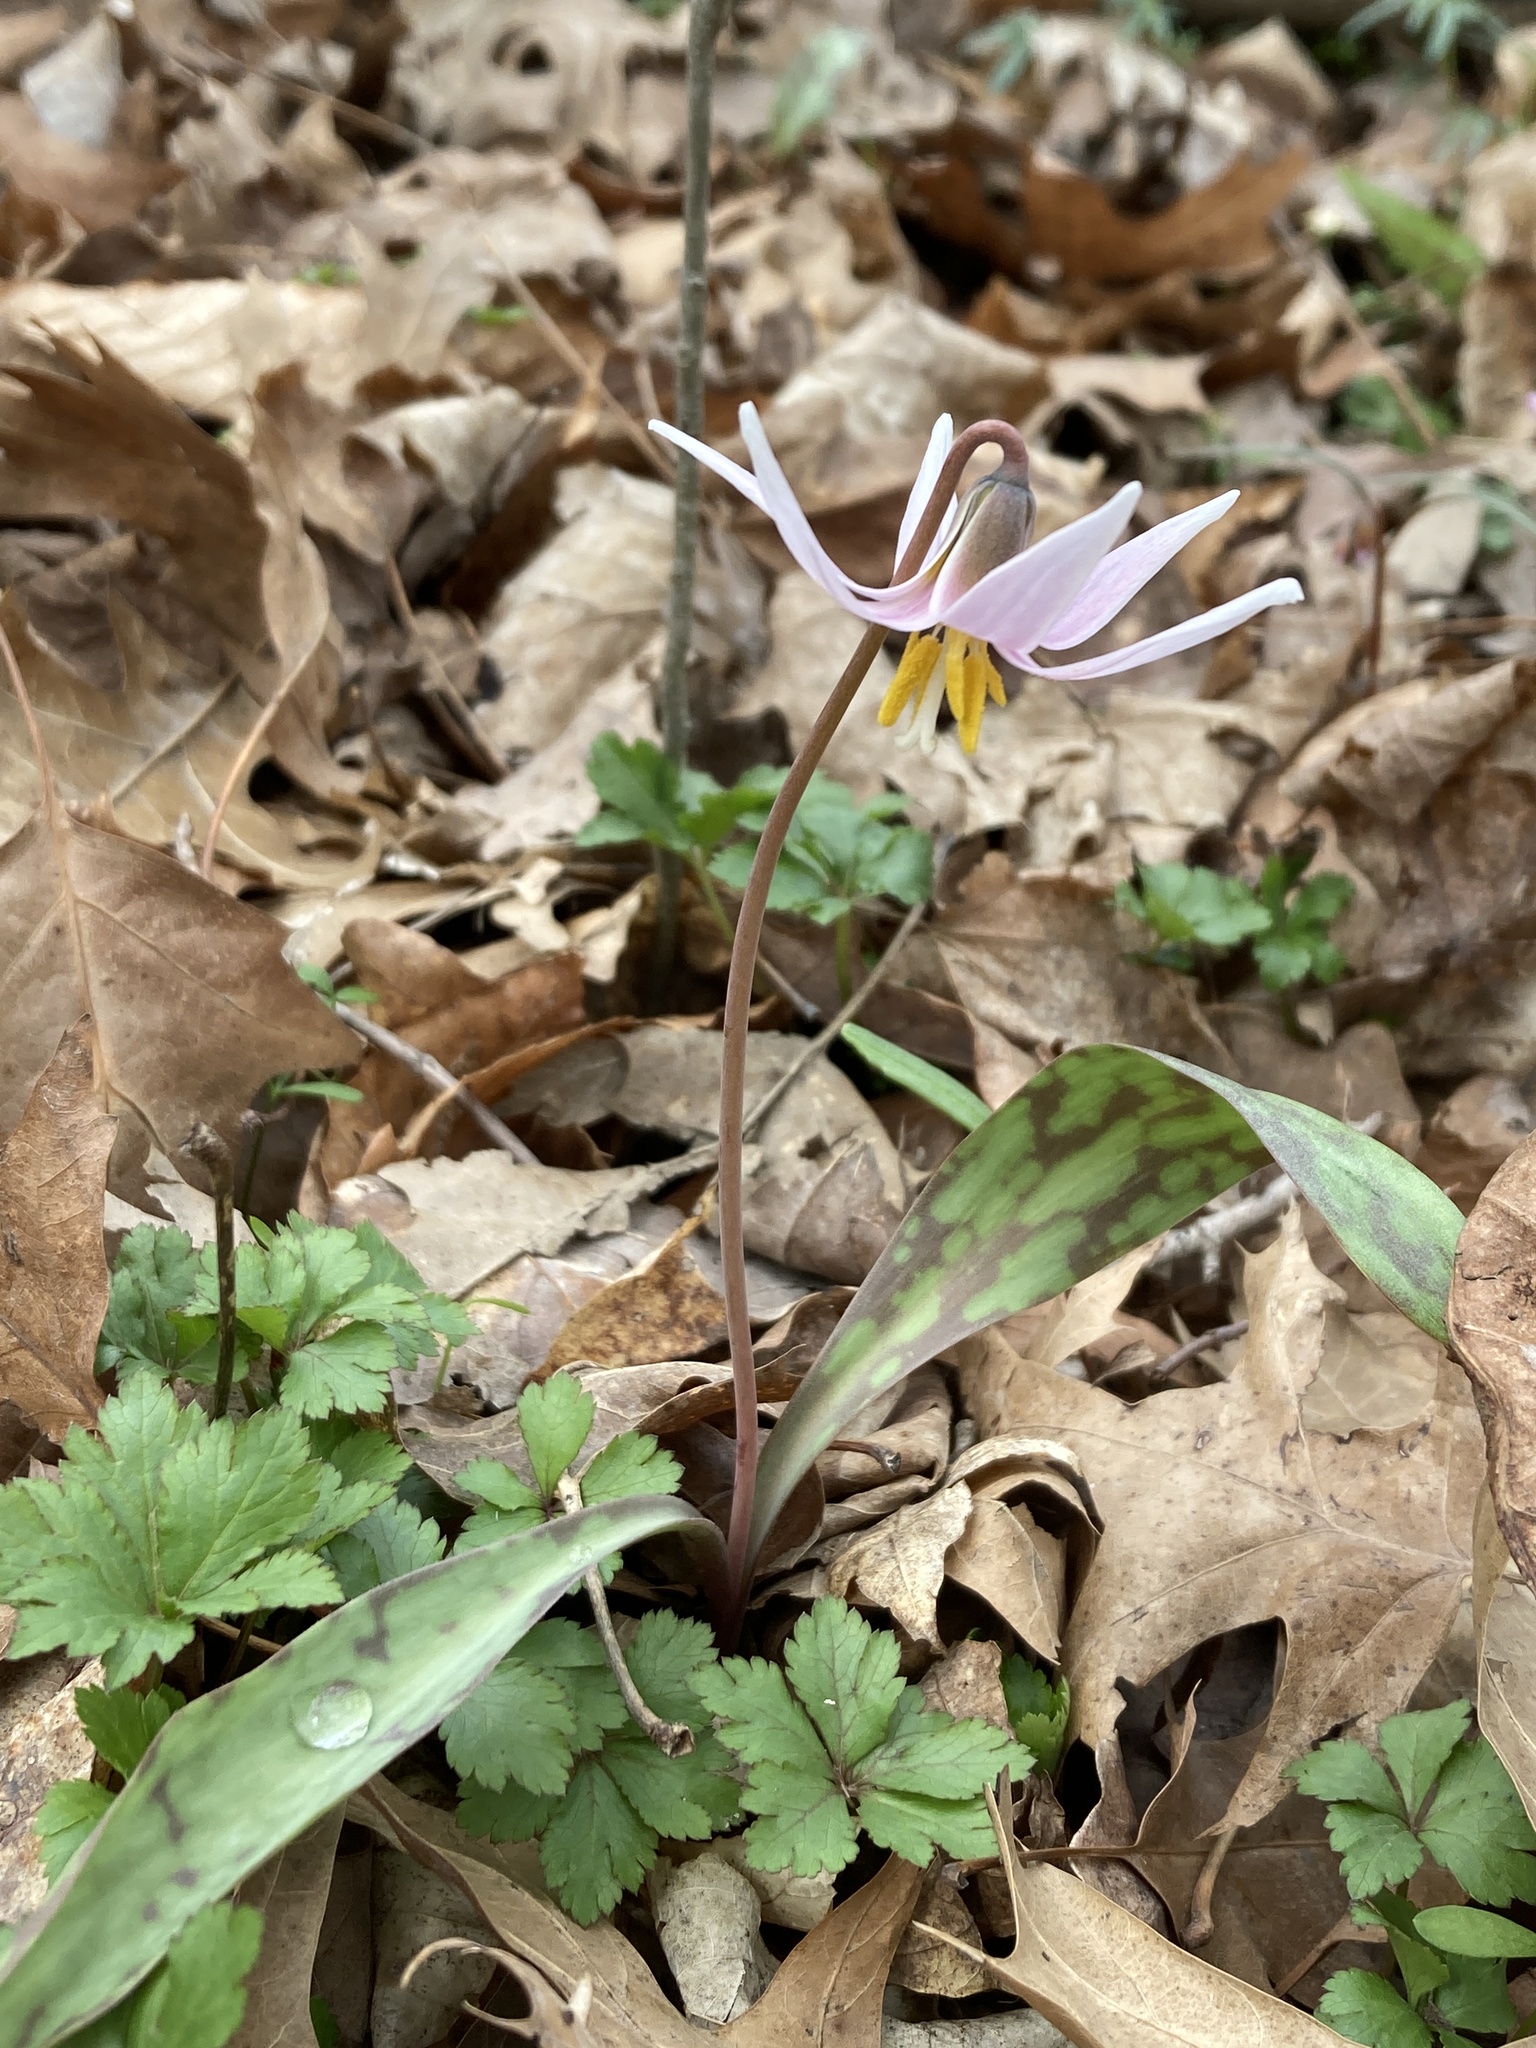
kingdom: Plantae
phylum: Tracheophyta
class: Liliopsida
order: Liliales
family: Liliaceae
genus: Erythronium
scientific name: Erythronium albidum
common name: White trout-lily
